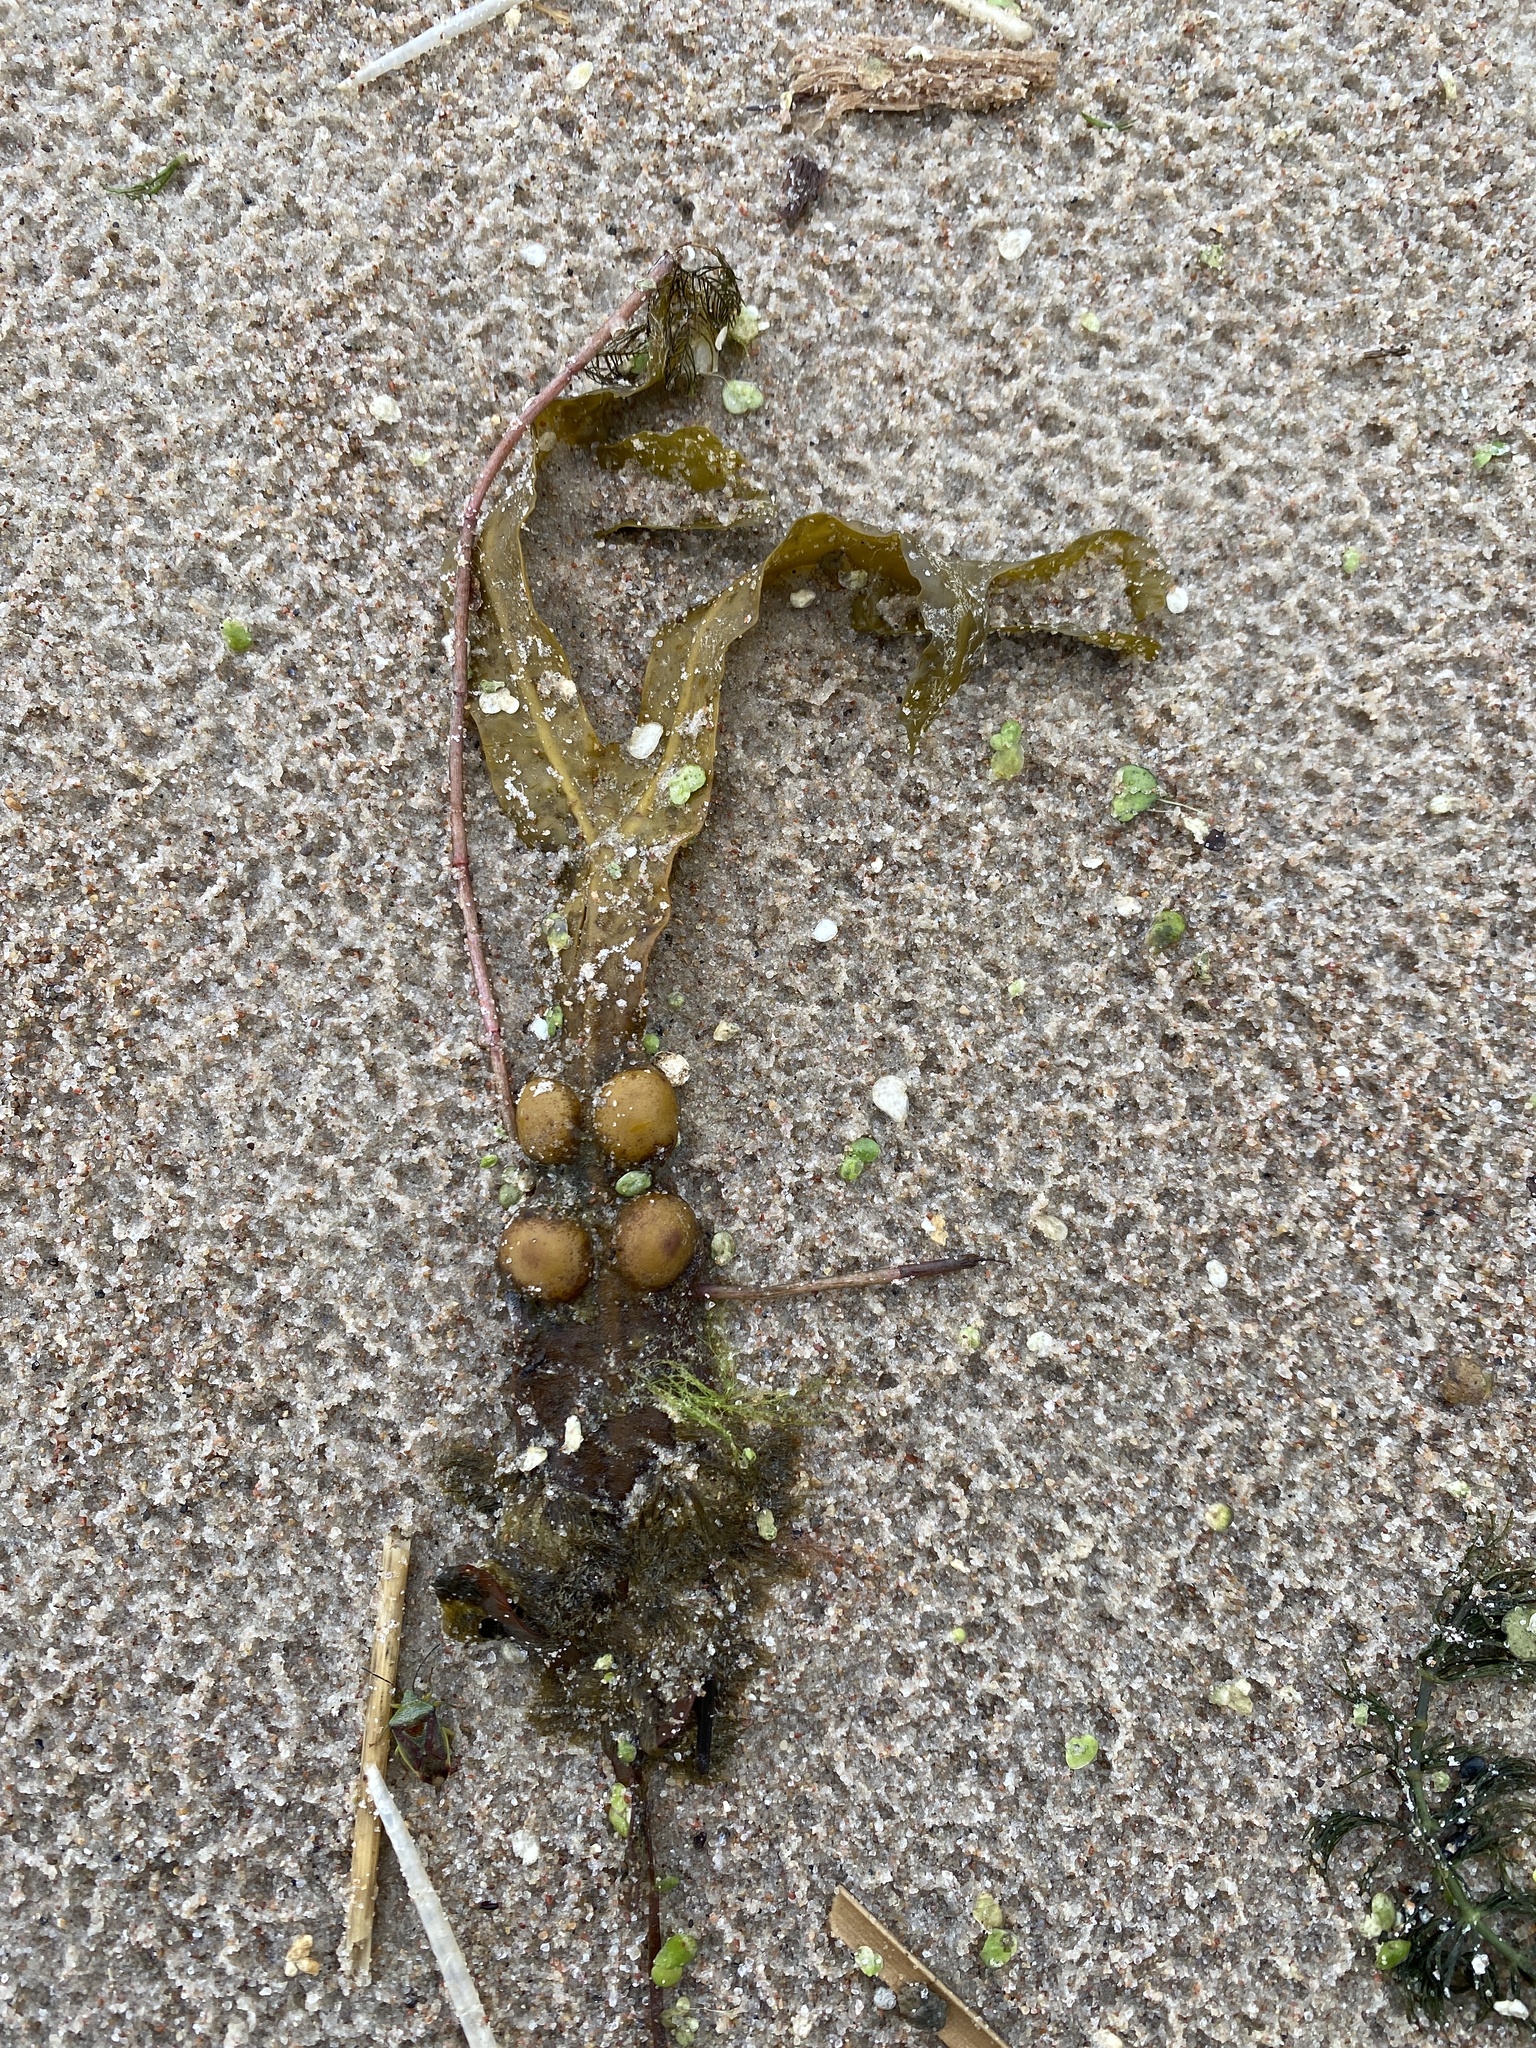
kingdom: Chromista
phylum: Ochrophyta
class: Phaeophyceae
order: Fucales
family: Fucaceae
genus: Fucus
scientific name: Fucus vesiculosus
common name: Bladder wrack
